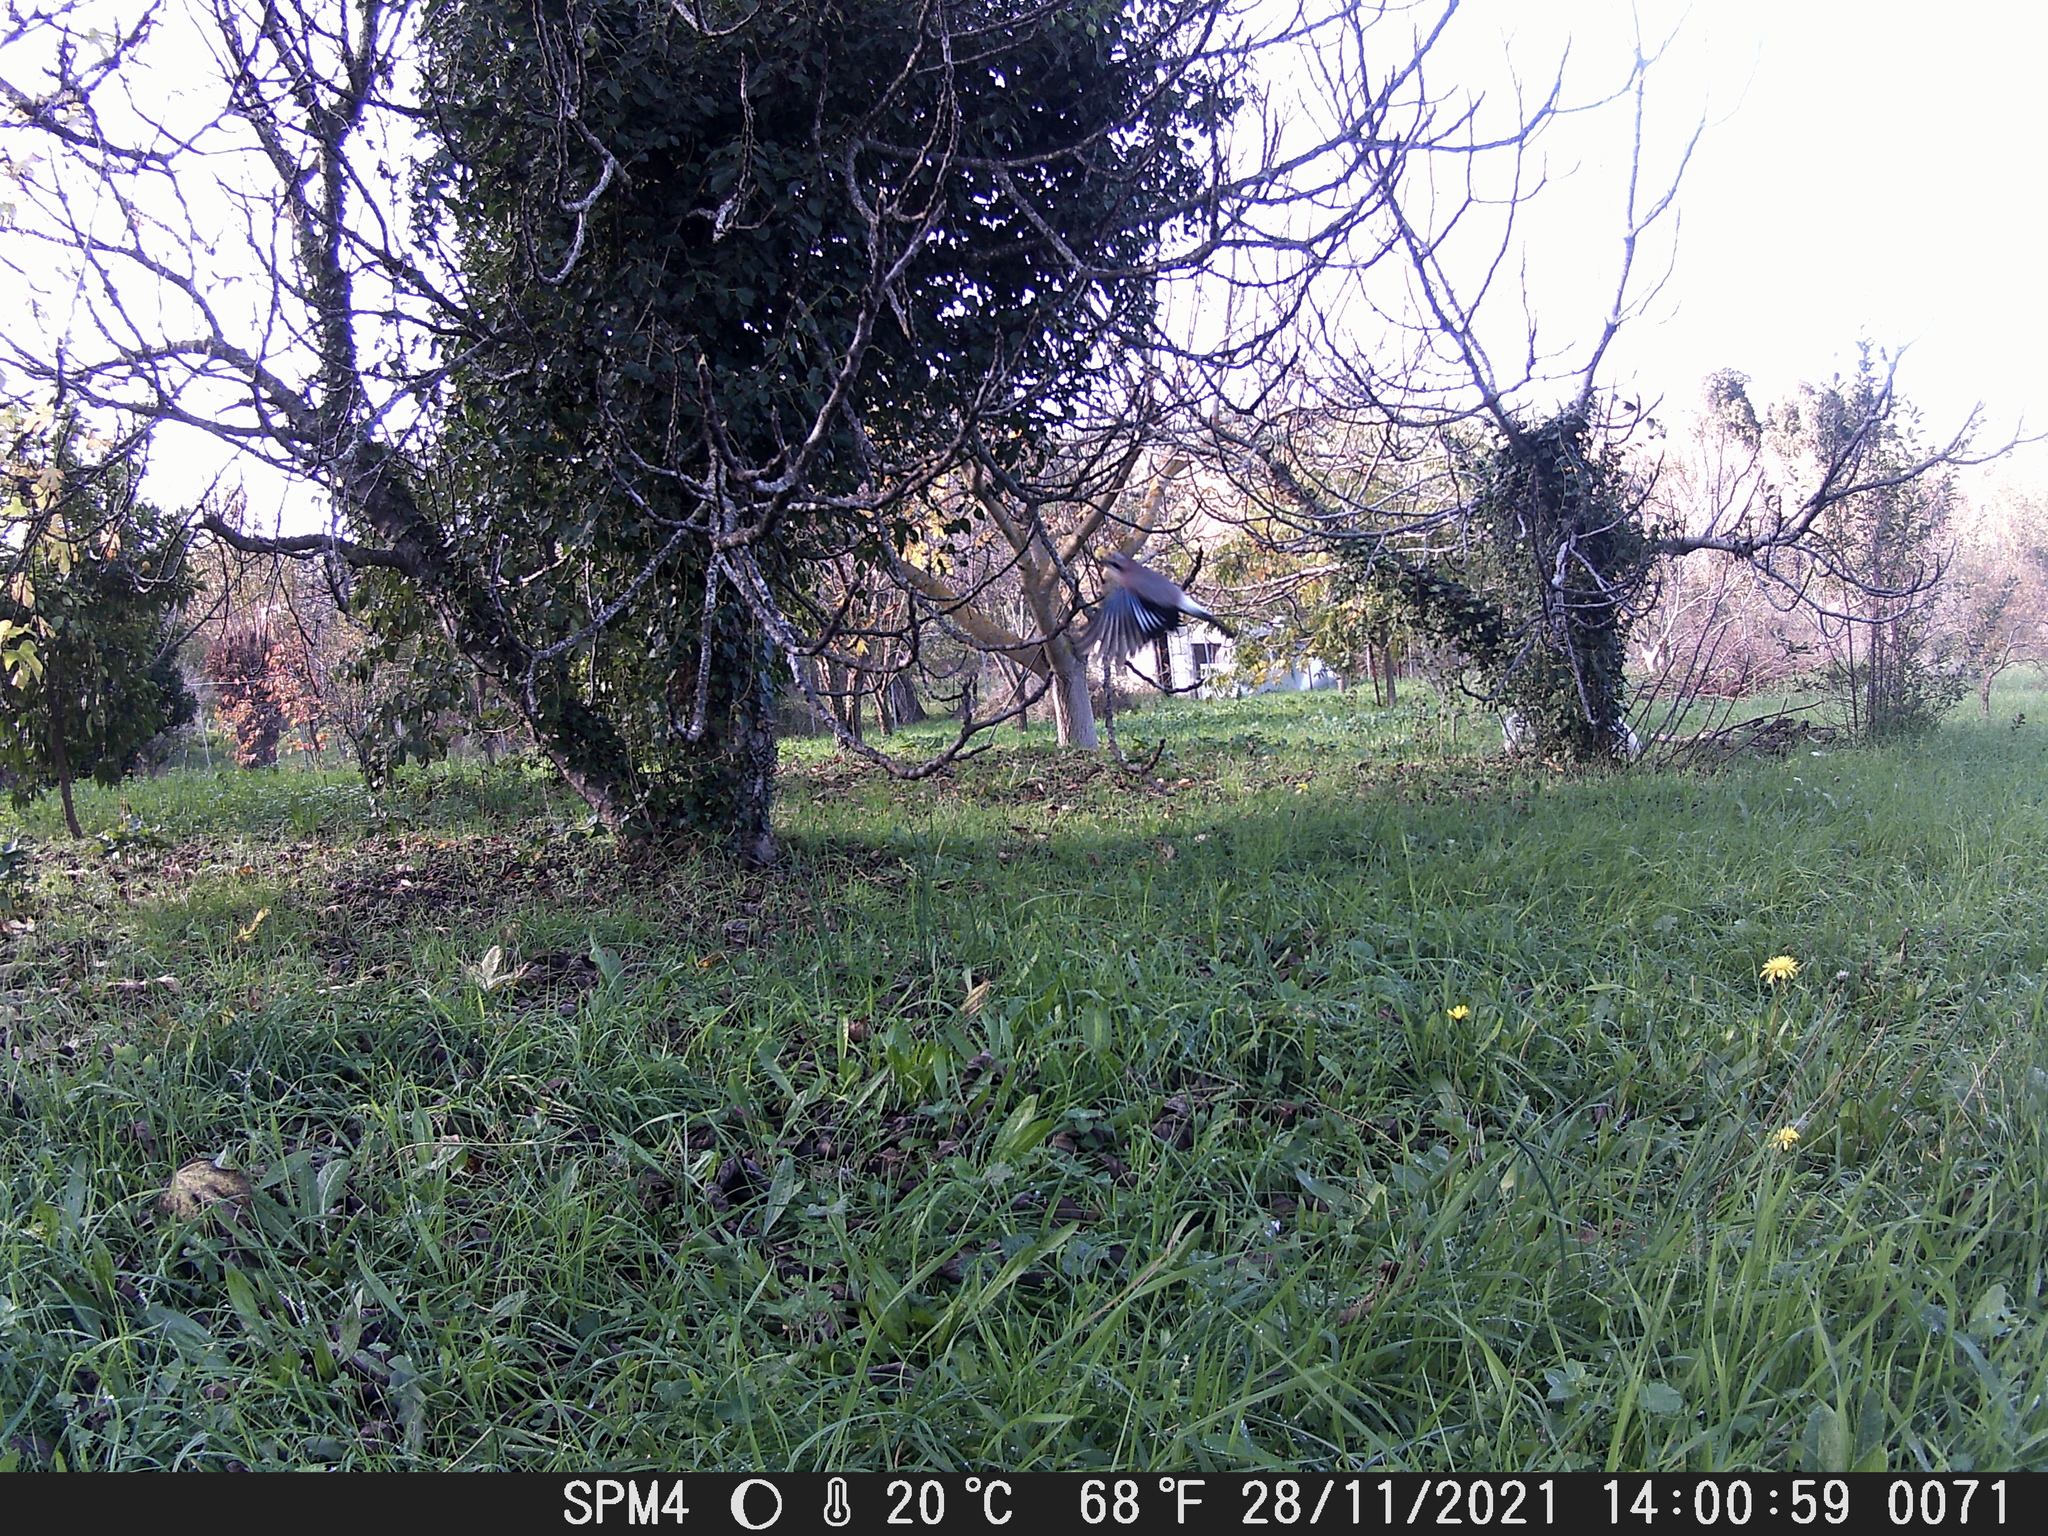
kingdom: Animalia
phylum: Chordata
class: Aves
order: Passeriformes
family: Corvidae
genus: Garrulus
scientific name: Garrulus glandarius
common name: Eurasian jay
